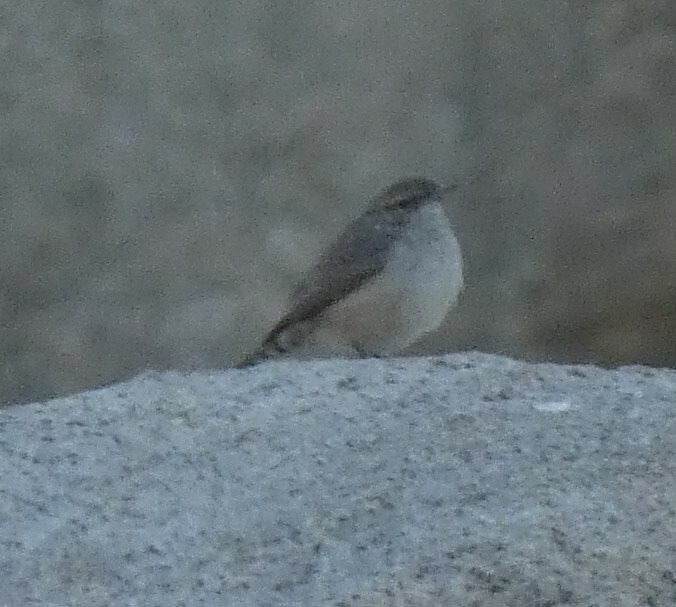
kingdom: Animalia
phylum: Chordata
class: Aves
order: Passeriformes
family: Troglodytidae
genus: Salpinctes
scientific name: Salpinctes obsoletus
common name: Rock wren
